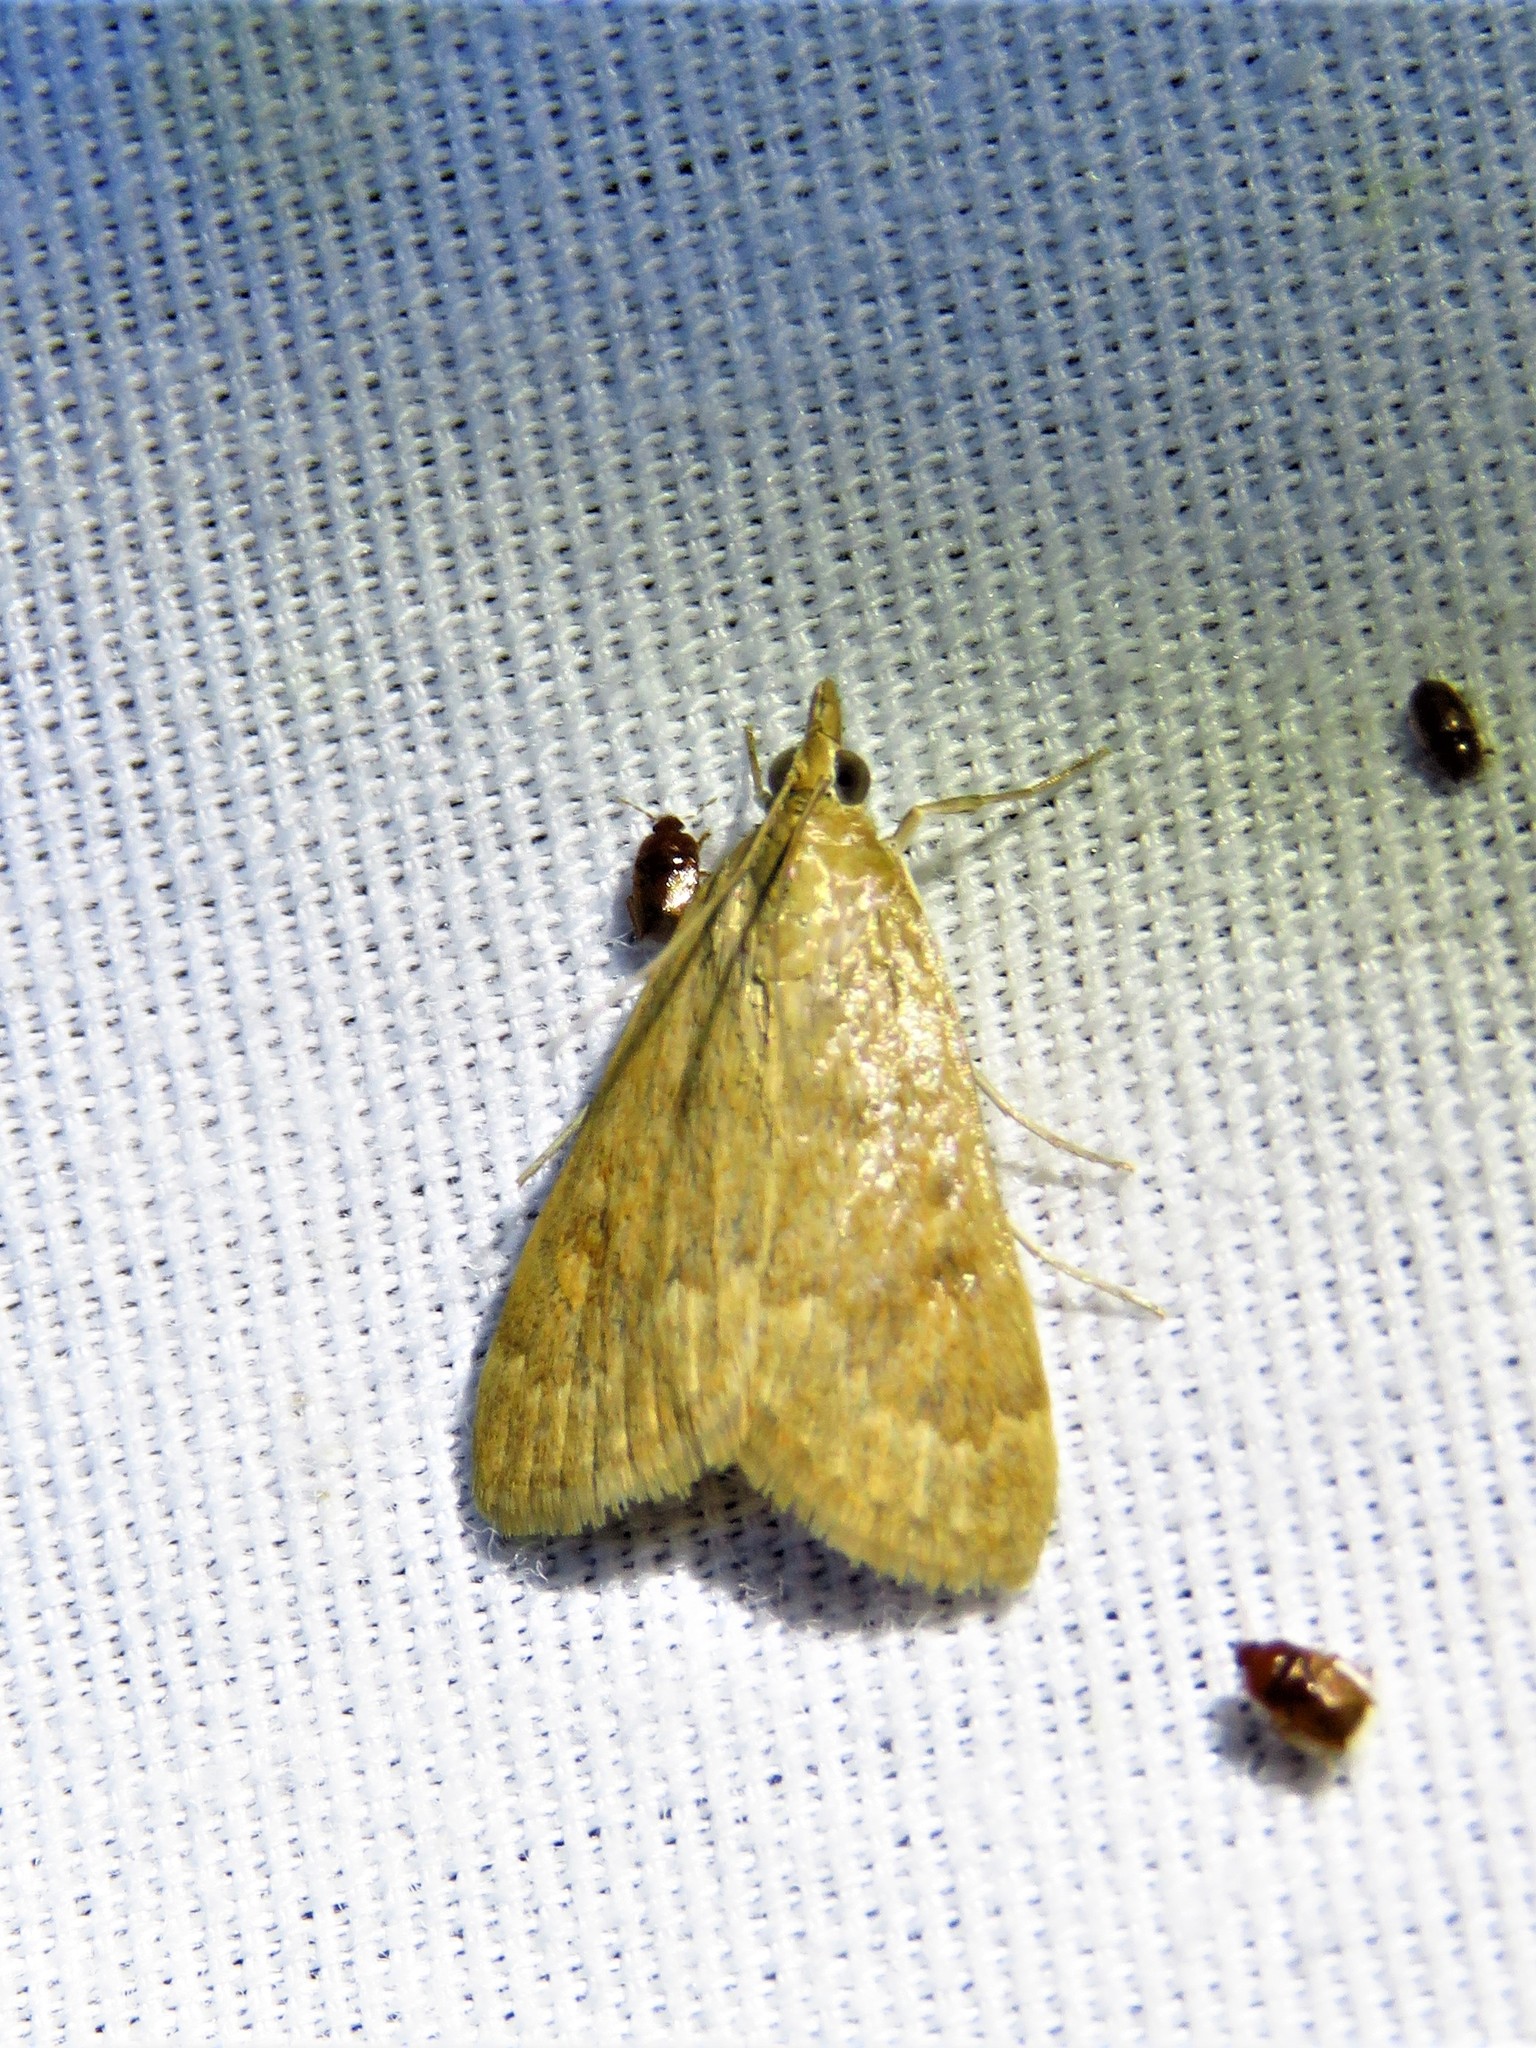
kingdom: Animalia
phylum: Arthropoda
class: Insecta
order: Lepidoptera
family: Crambidae
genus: Achyra
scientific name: Achyra rantalis
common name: Garden webworm
